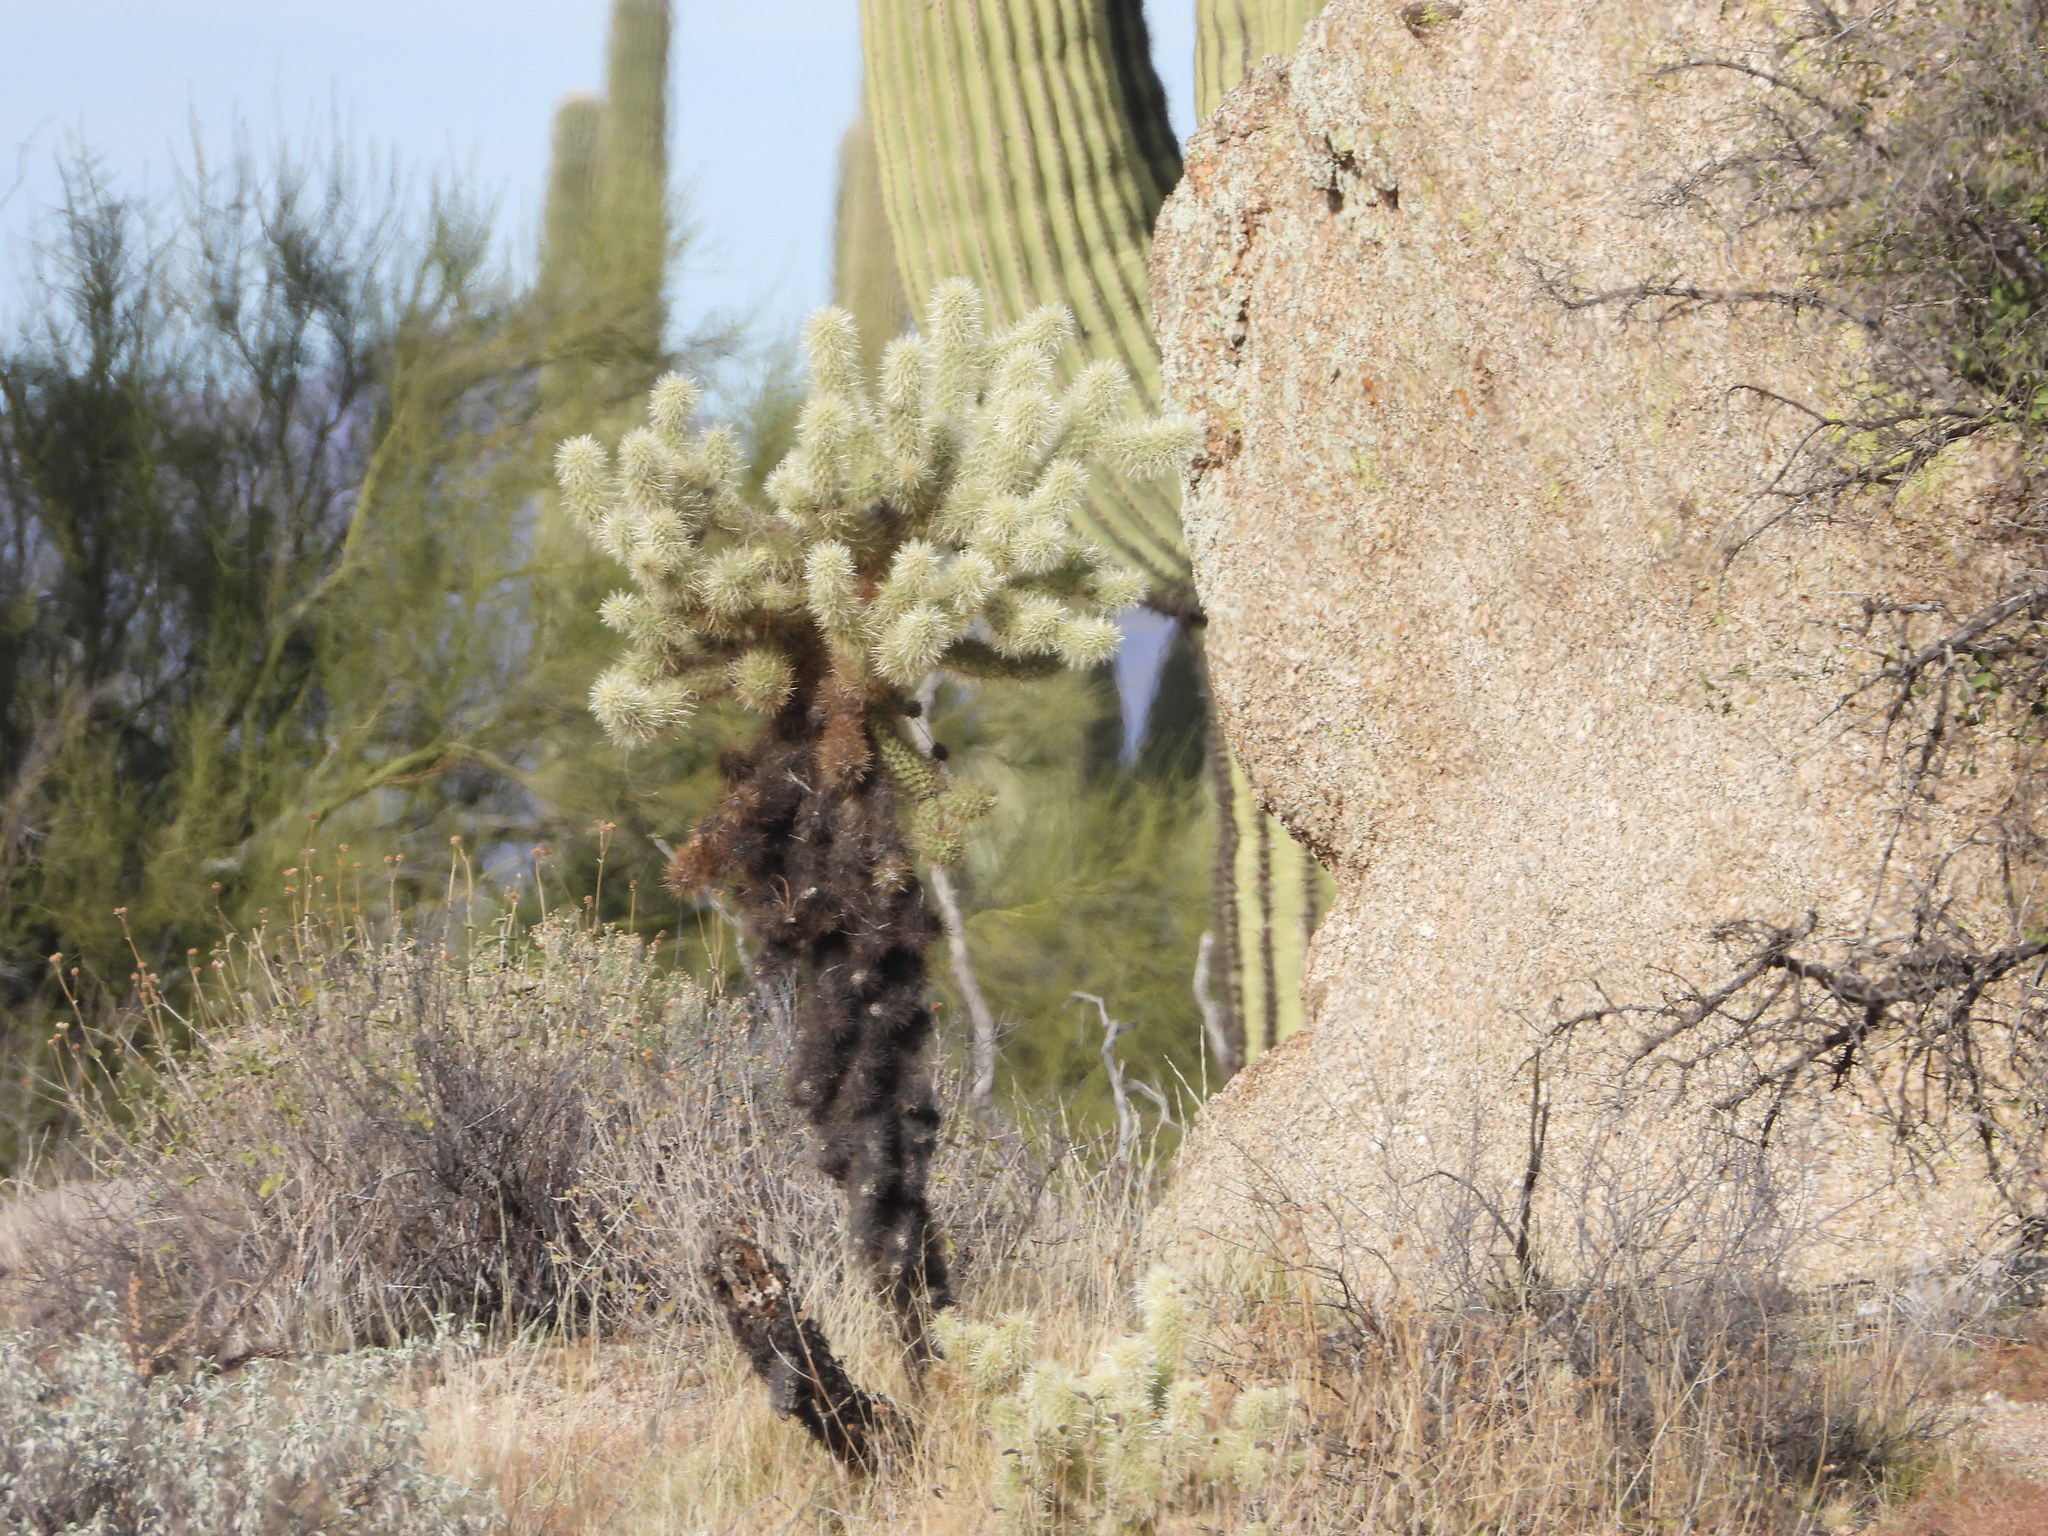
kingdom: Plantae
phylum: Tracheophyta
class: Magnoliopsida
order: Caryophyllales
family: Cactaceae
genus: Cylindropuntia
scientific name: Cylindropuntia fosbergii
